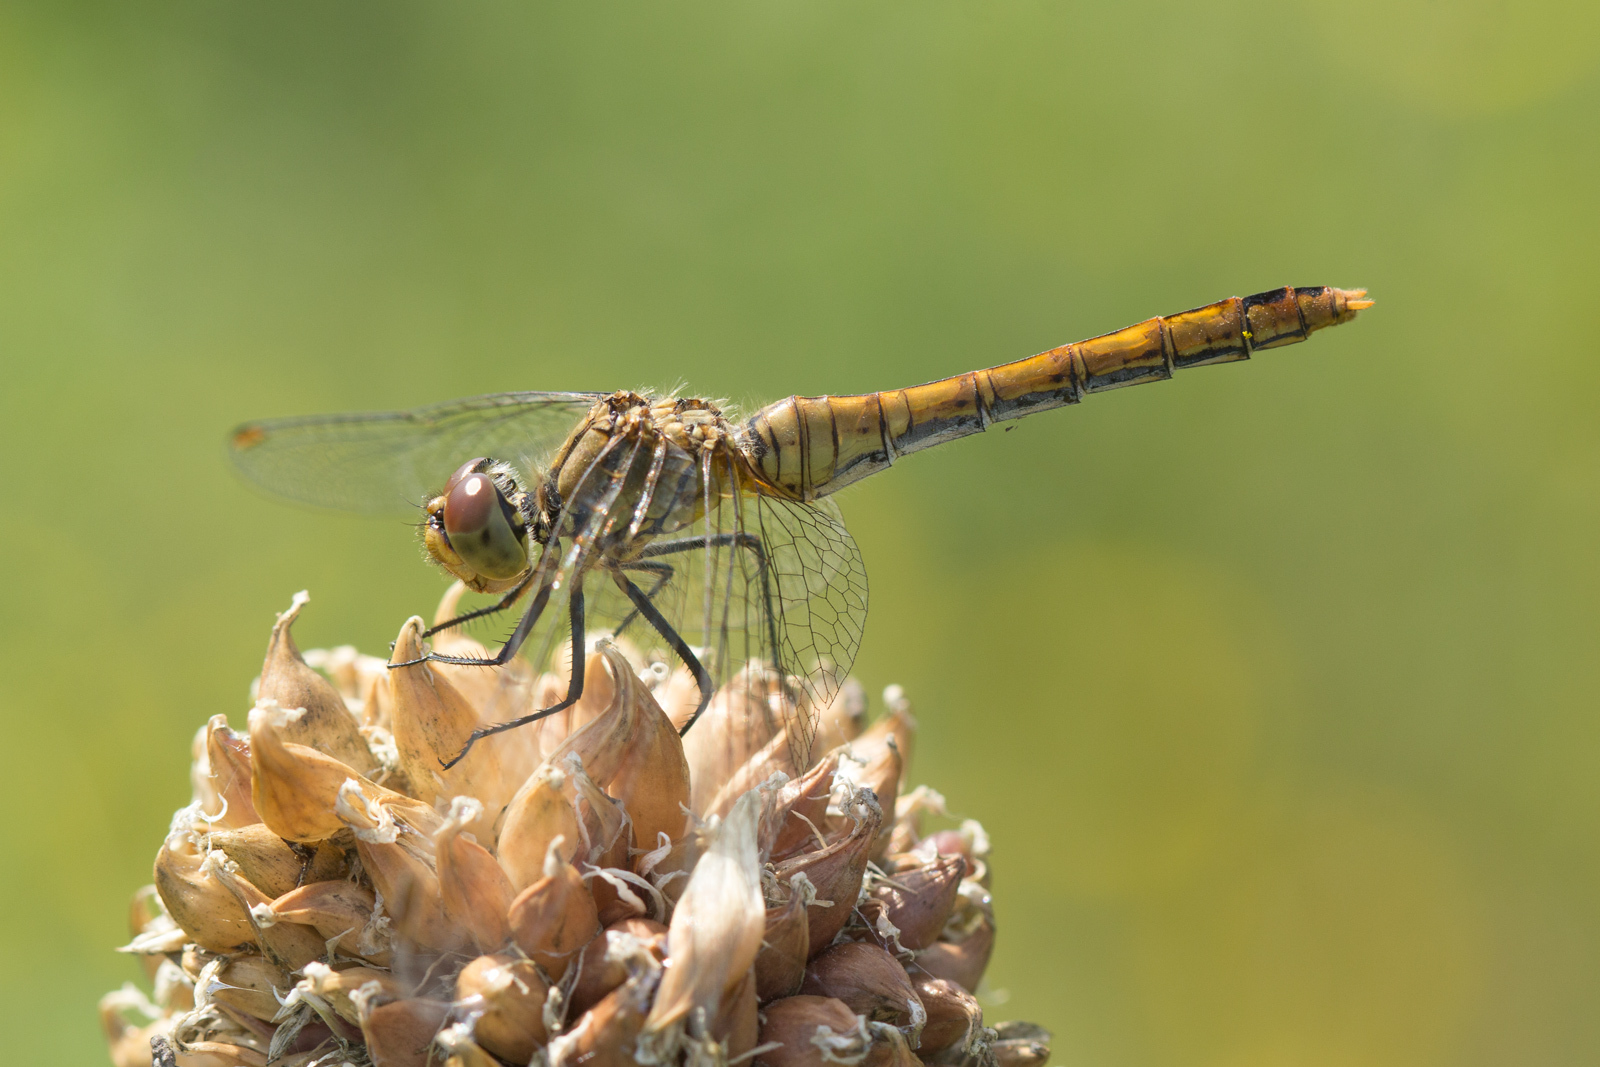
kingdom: Animalia
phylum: Arthropoda
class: Insecta
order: Odonata
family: Libellulidae
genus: Sympetrum
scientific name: Sympetrum sanguineum
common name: Ruddy darter
